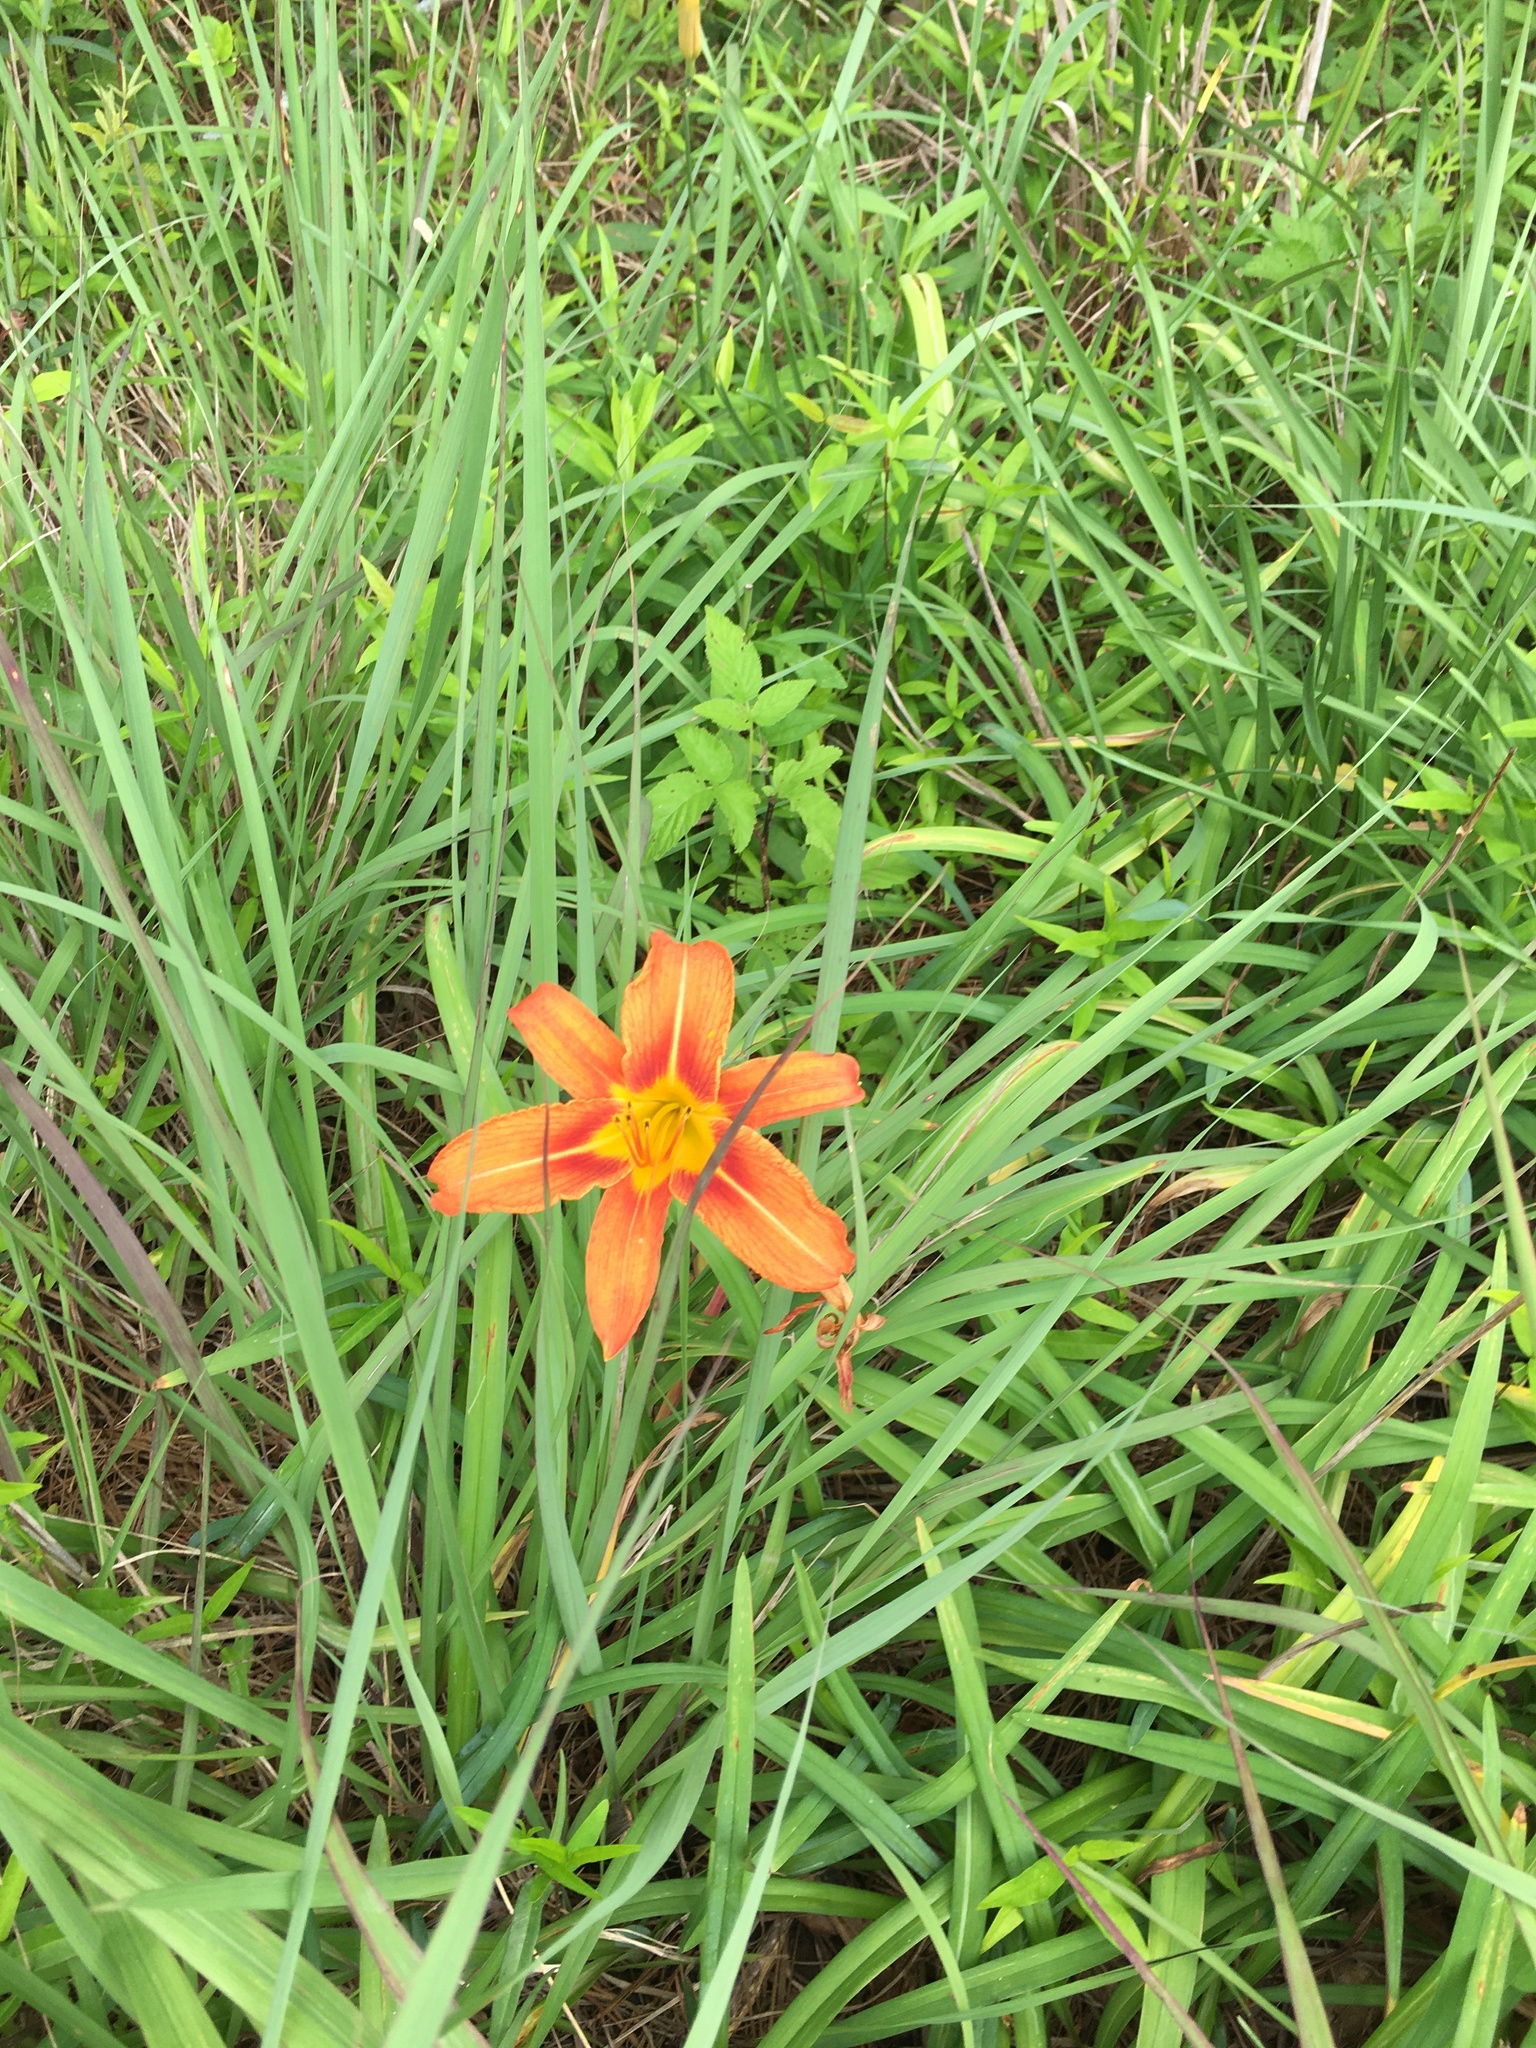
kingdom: Plantae
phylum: Tracheophyta
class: Liliopsida
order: Asparagales
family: Asphodelaceae
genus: Hemerocallis
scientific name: Hemerocallis fulva
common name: Orange day-lily
